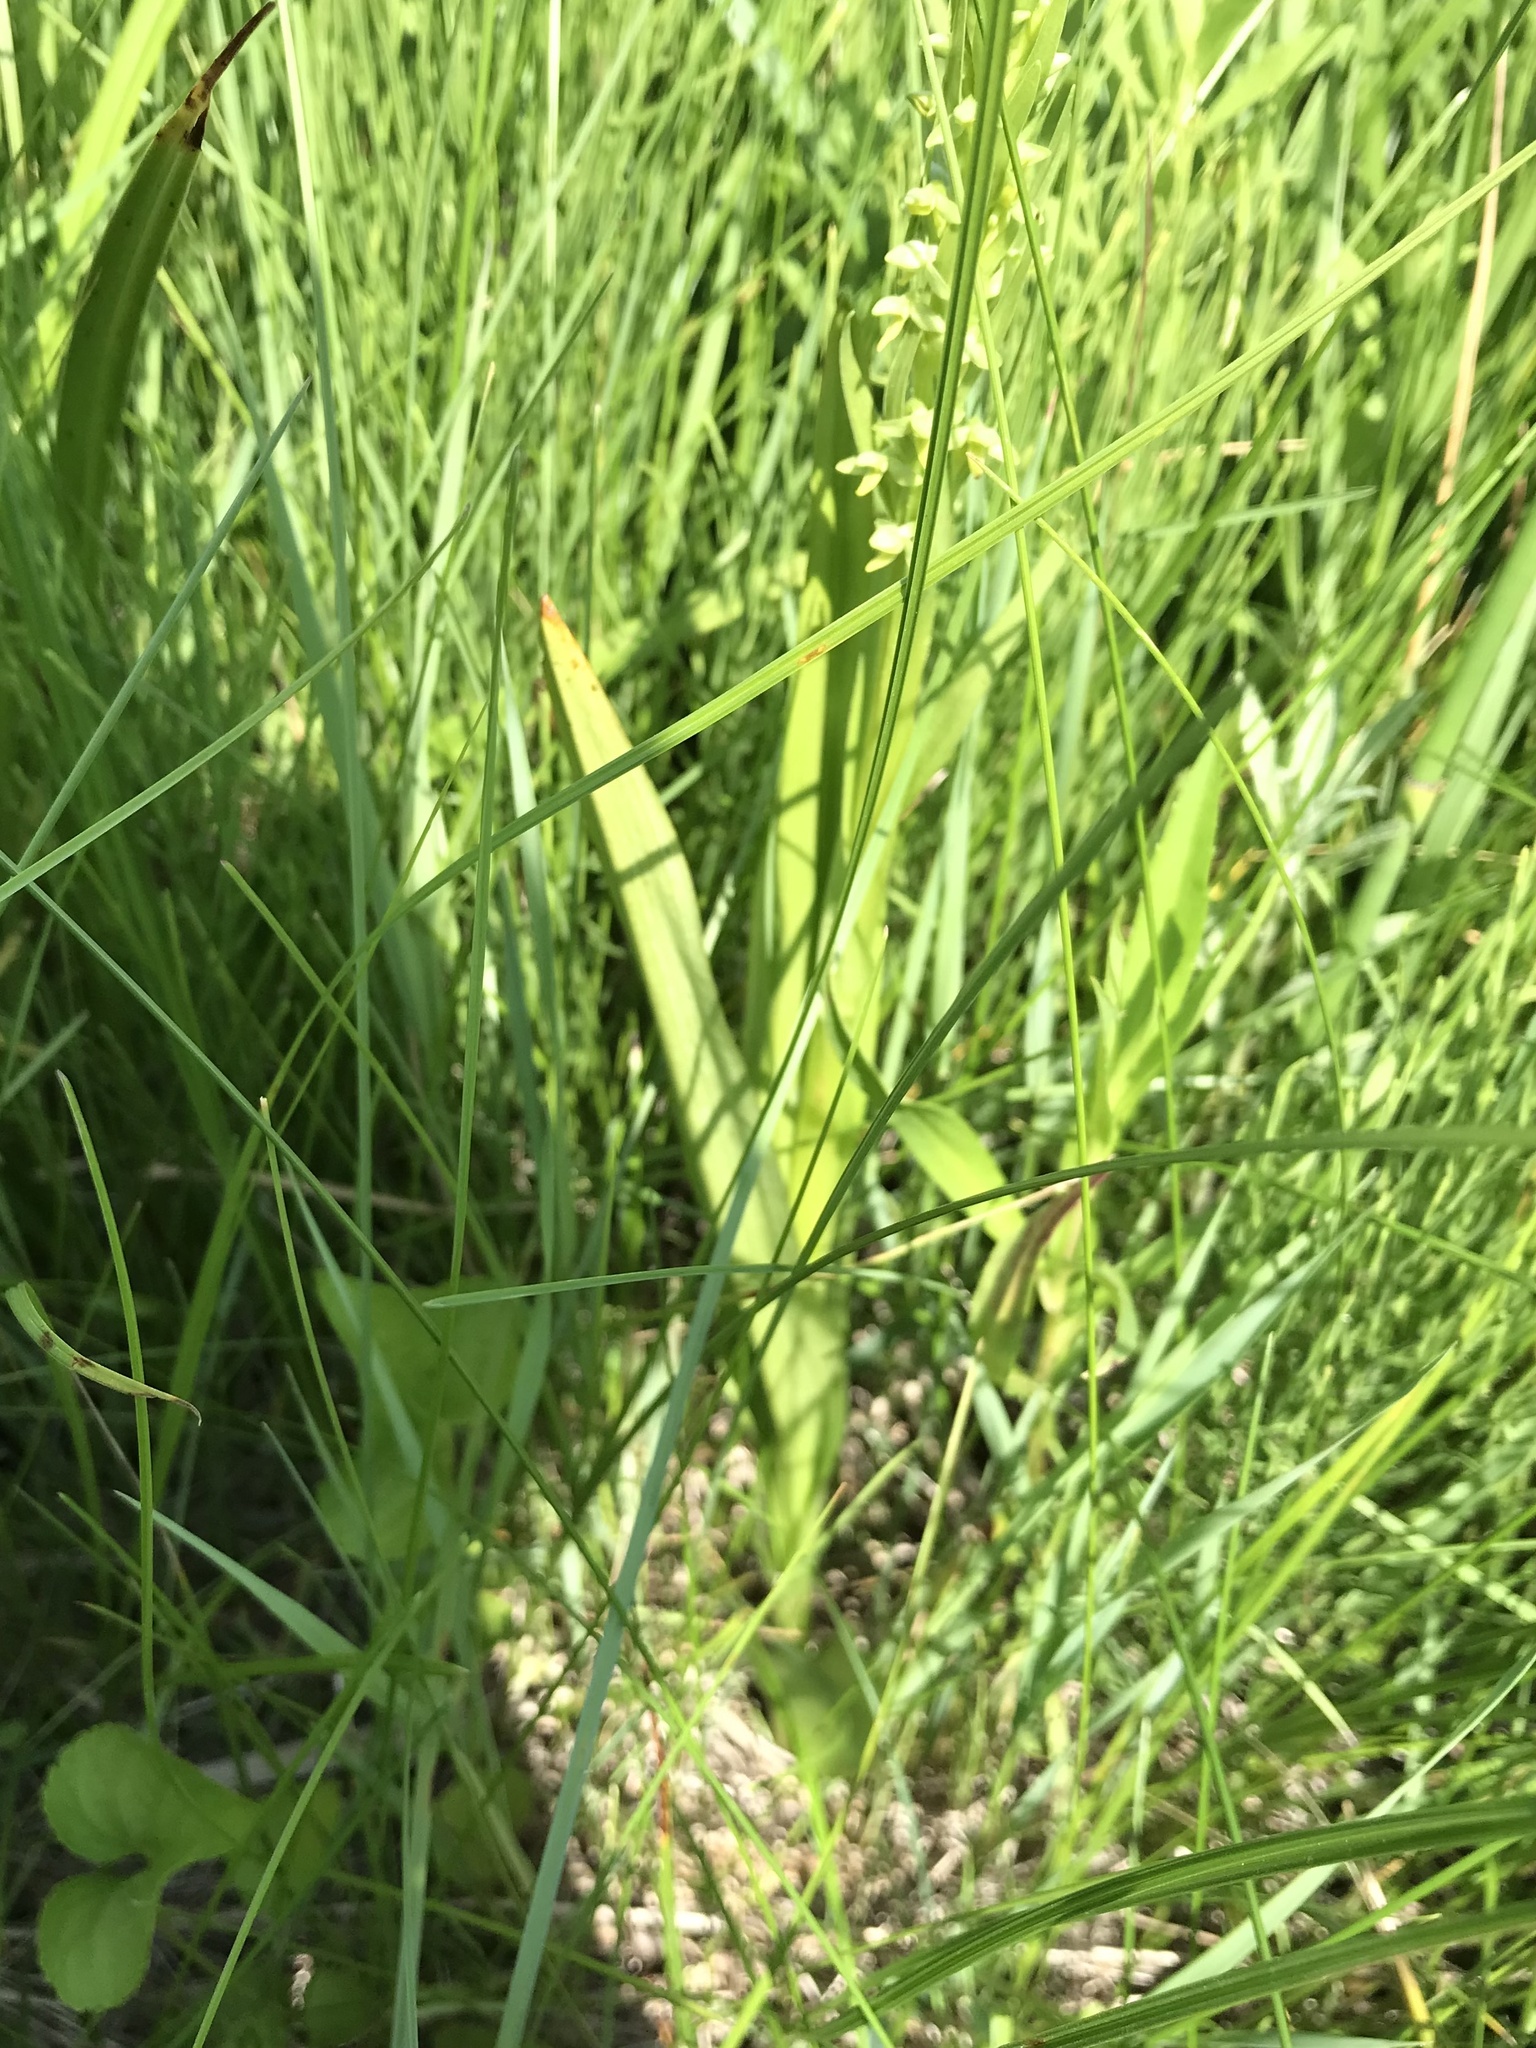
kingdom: Plantae
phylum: Tracheophyta
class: Liliopsida
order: Asparagales
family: Orchidaceae
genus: Platanthera
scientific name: Platanthera aquilonis
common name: Northern green orchid
